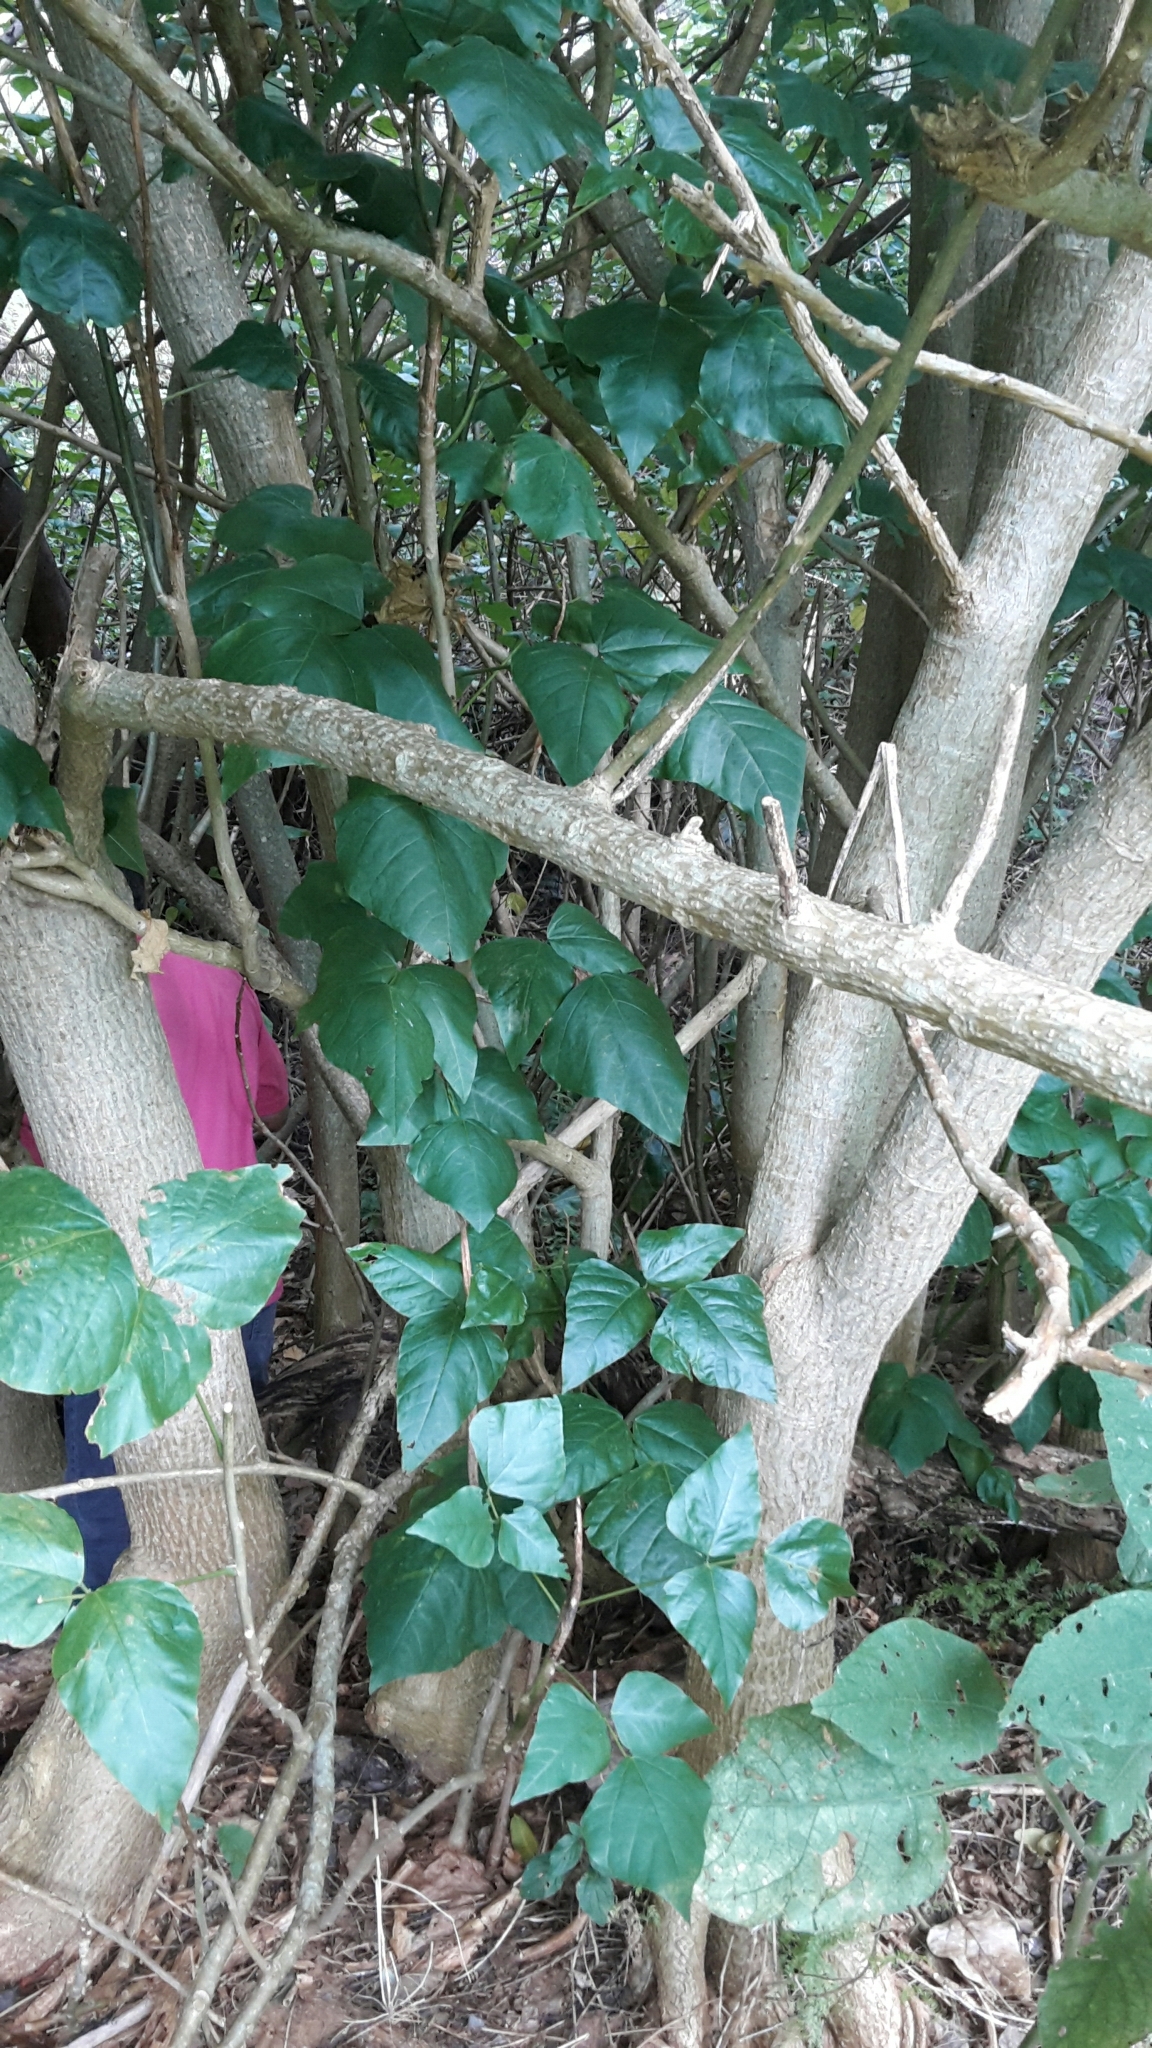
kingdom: Plantae
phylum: Tracheophyta
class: Magnoliopsida
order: Fabales
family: Fabaceae
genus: Erythrina
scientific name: Erythrina sykesii
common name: Coraltree
